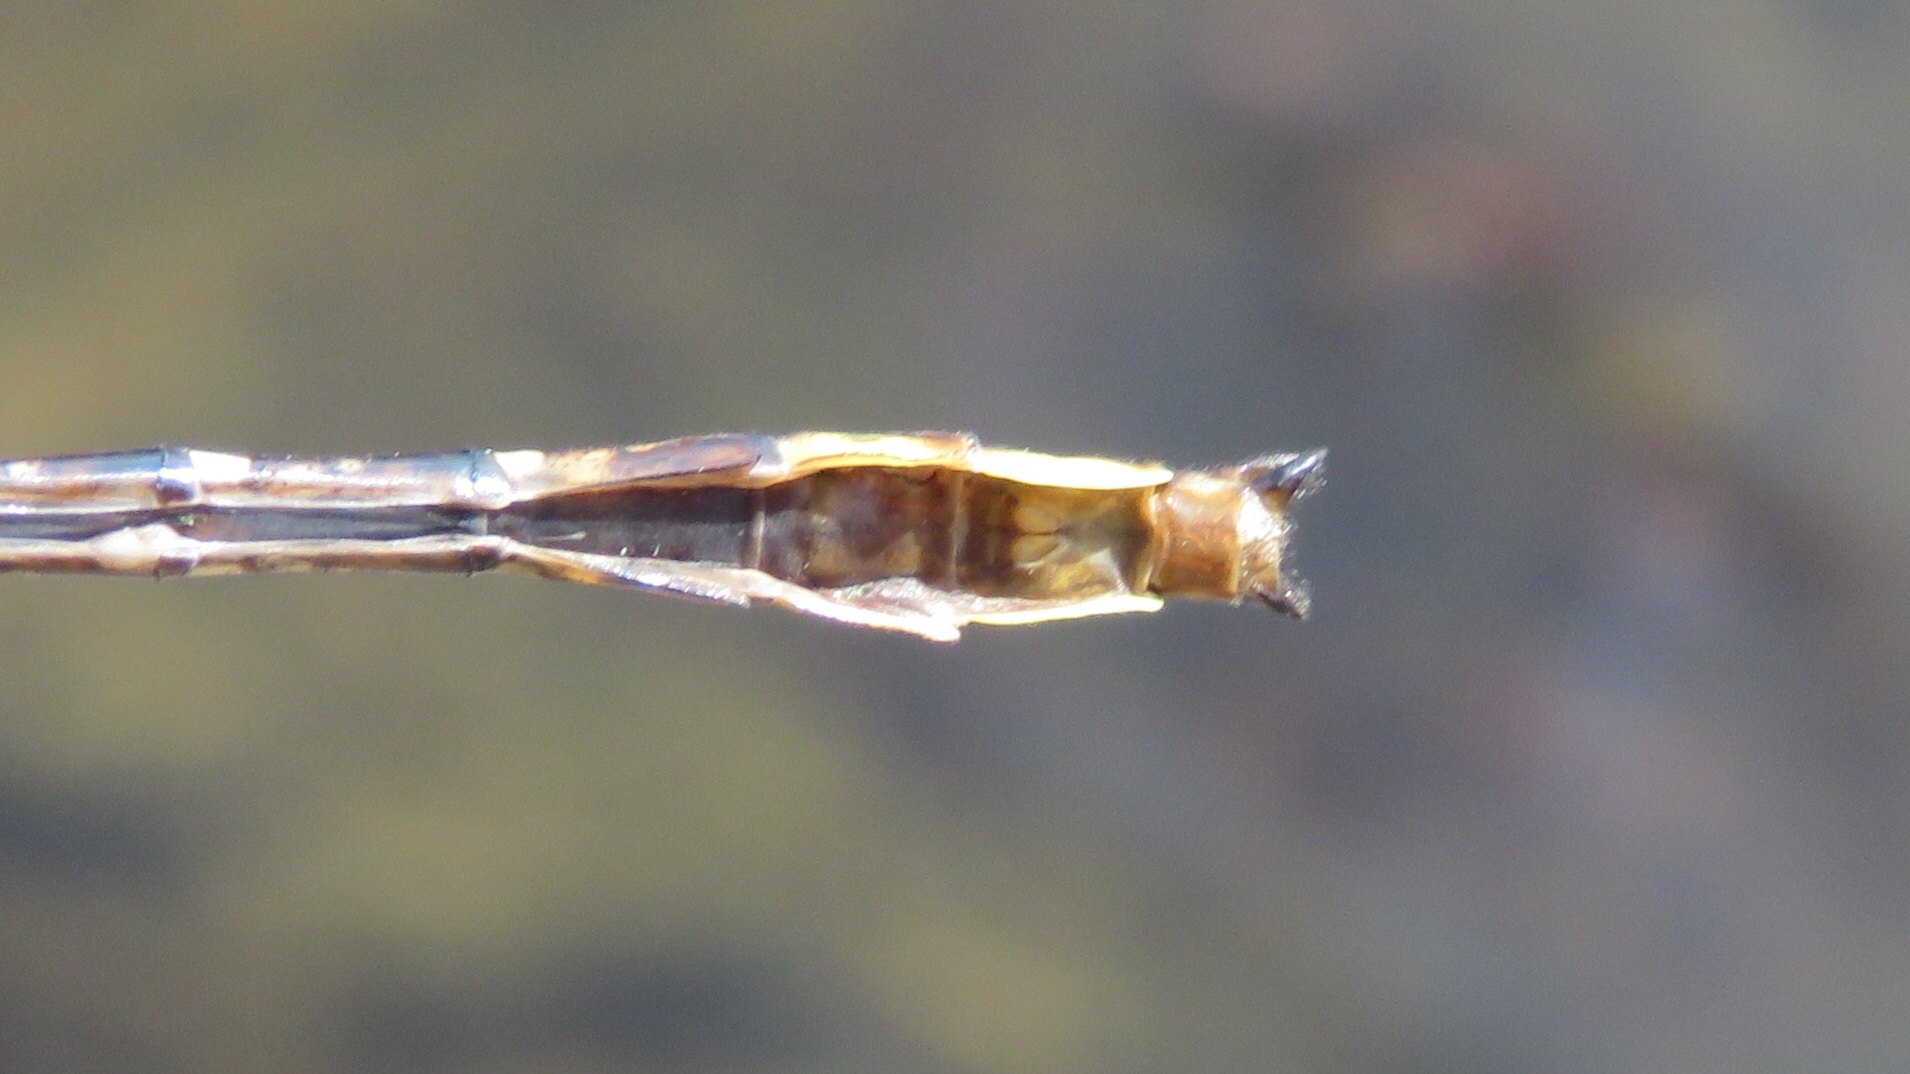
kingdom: Animalia
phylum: Arthropoda
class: Insecta
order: Odonata
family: Gomphidae
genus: Phanogomphus
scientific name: Phanogomphus exilis
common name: Lancet clubtail
